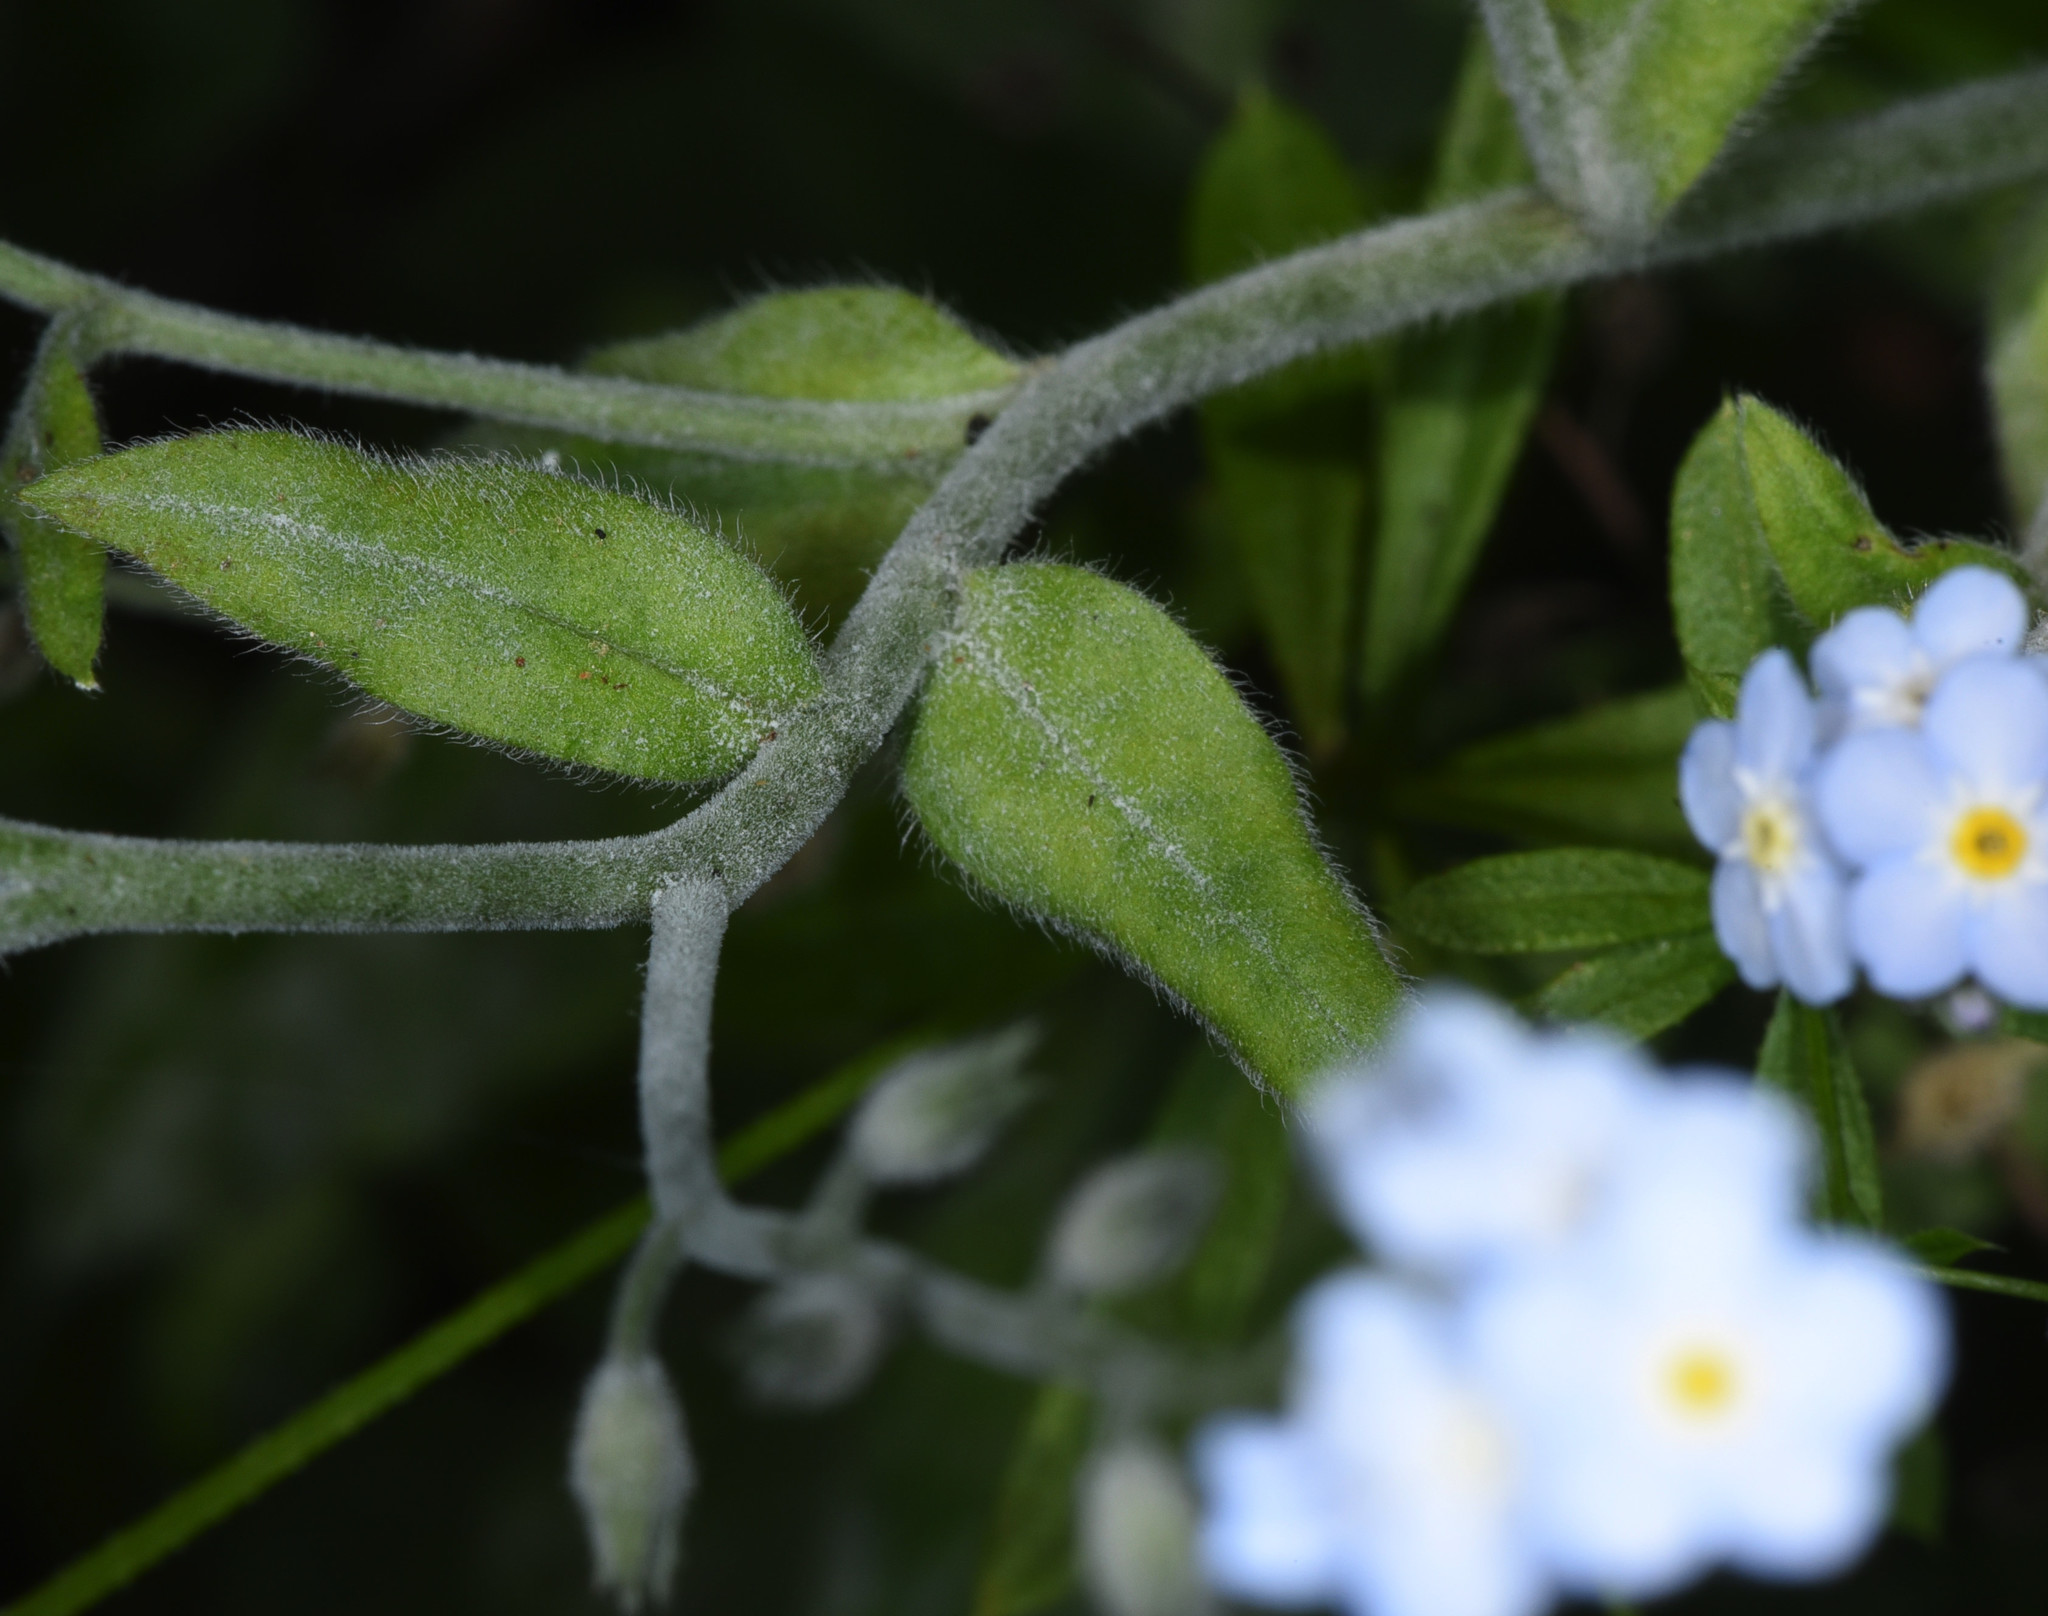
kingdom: Plantae
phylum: Tracheophyta
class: Magnoliopsida
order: Boraginales
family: Boraginaceae
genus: Myosotis
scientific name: Myosotis latifolia
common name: Broadleaf forget-me-not
